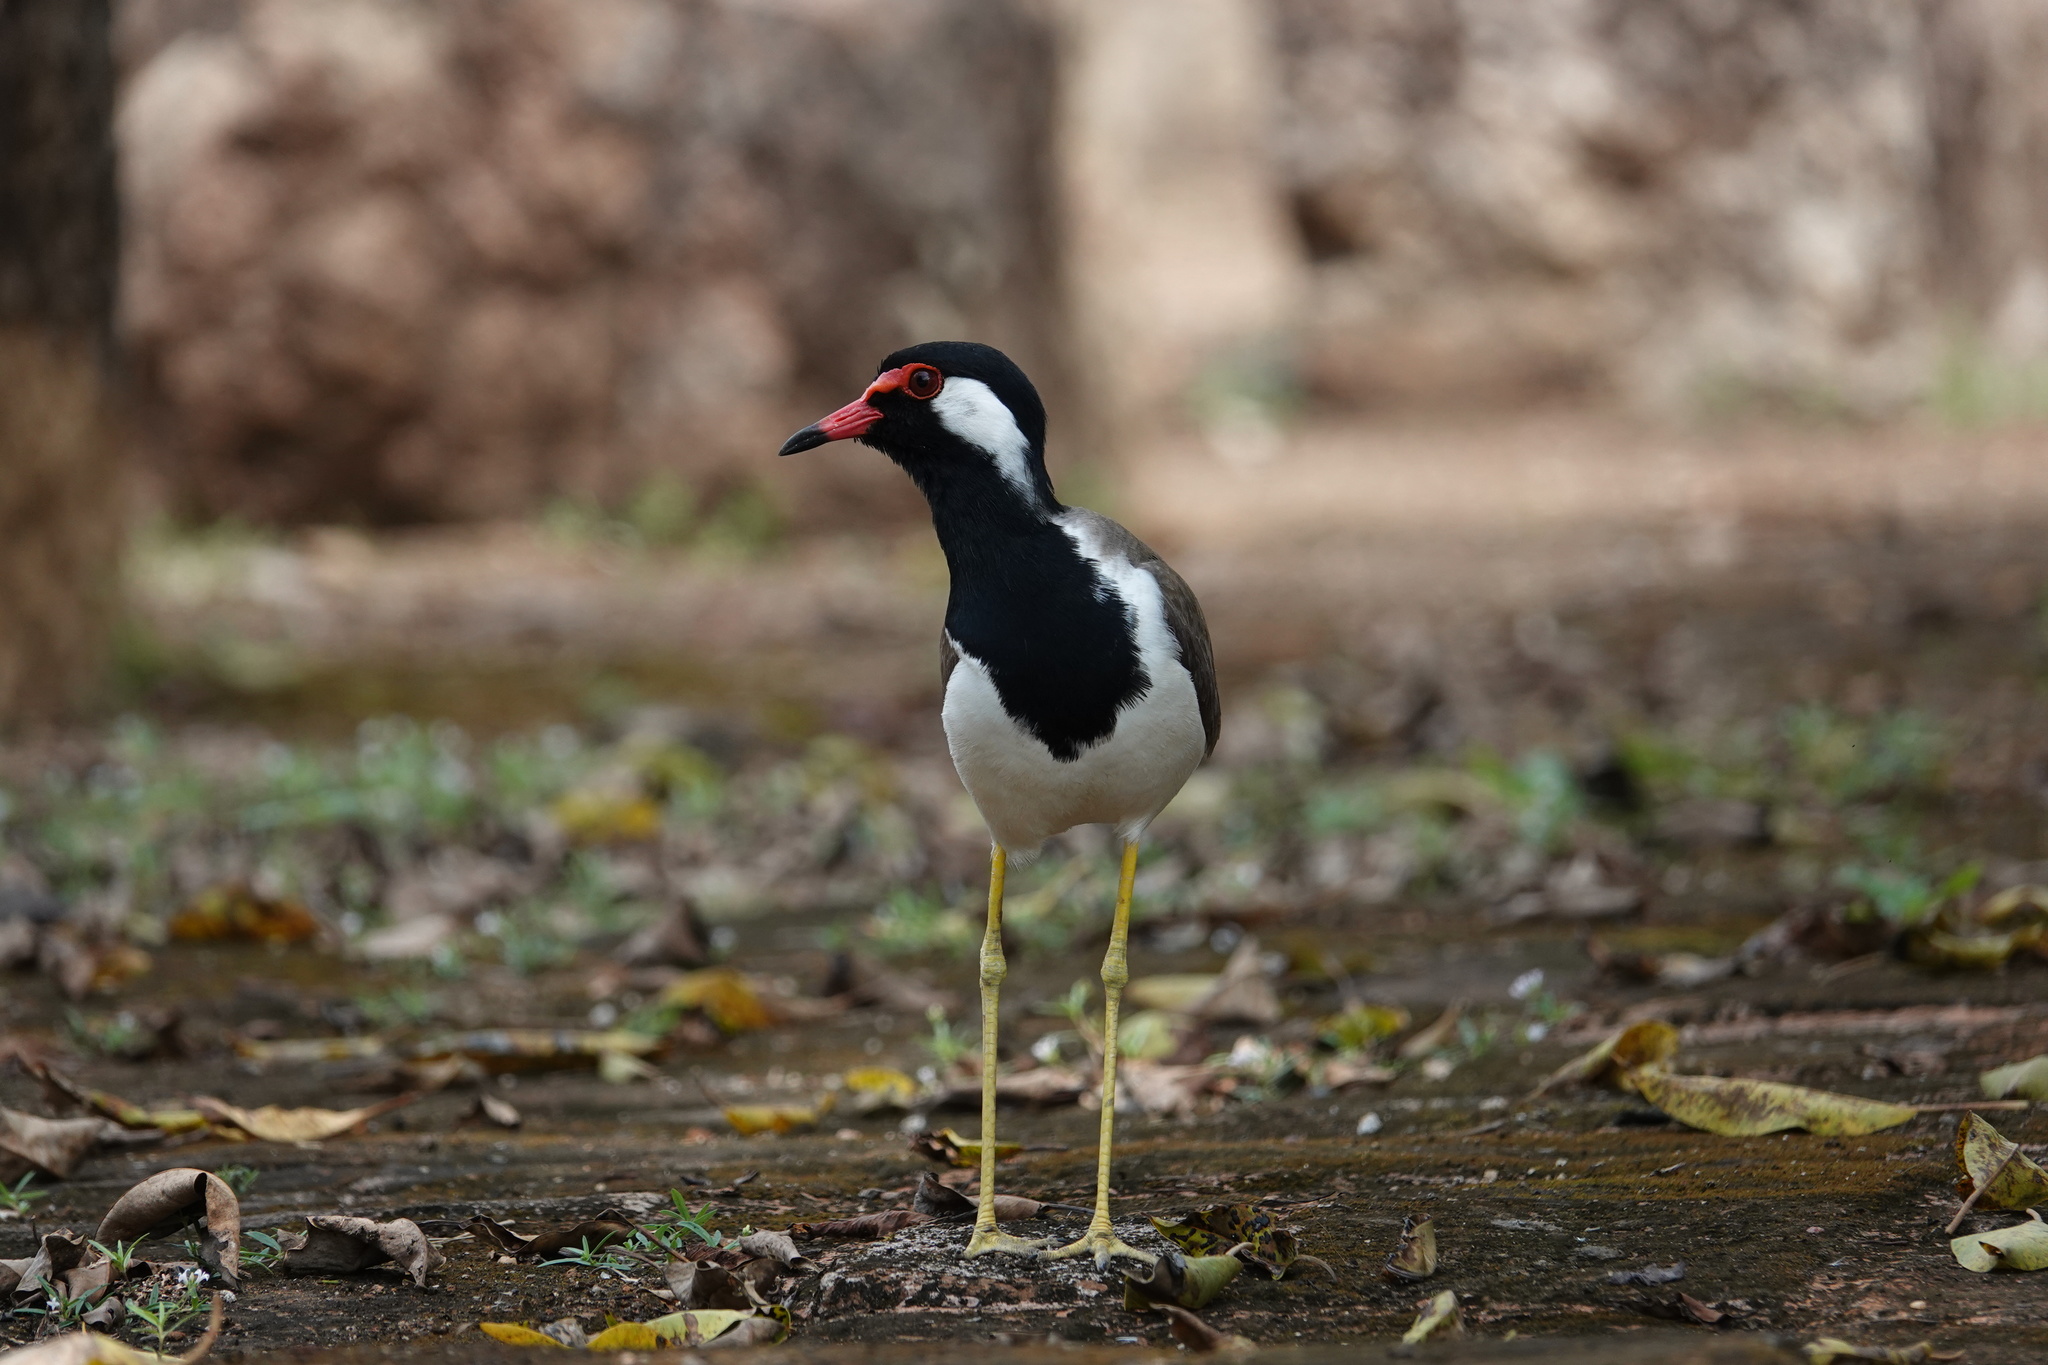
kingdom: Animalia
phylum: Chordata
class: Aves
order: Charadriiformes
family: Charadriidae
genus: Vanellus
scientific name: Vanellus indicus
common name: Red-wattled lapwing
